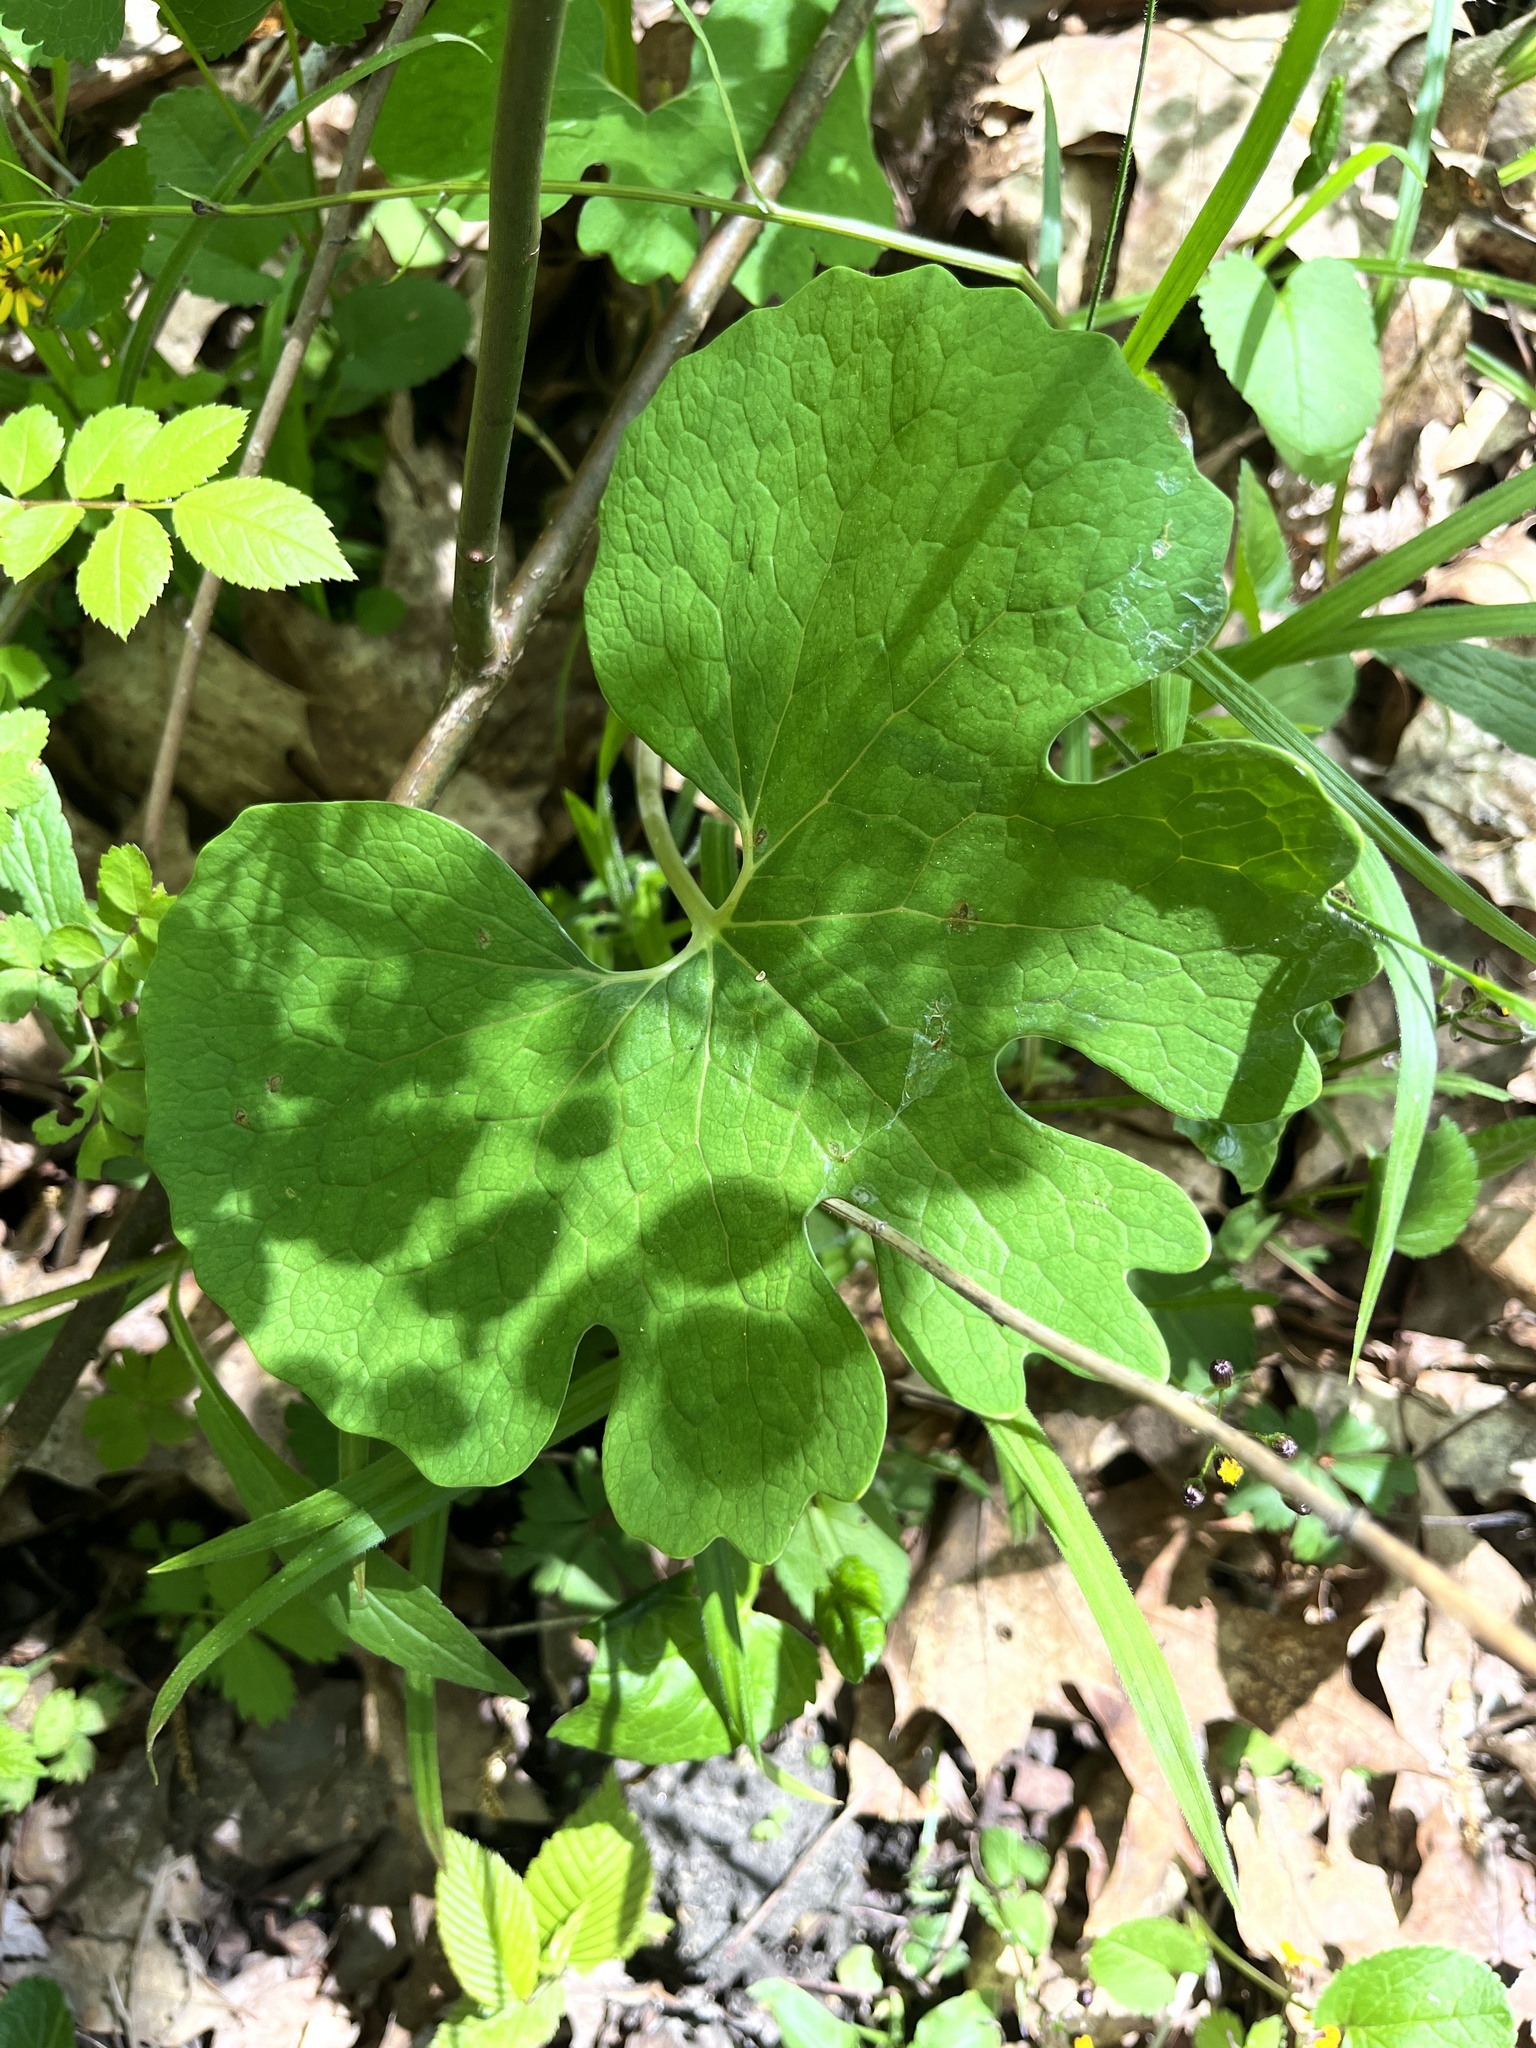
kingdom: Plantae
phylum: Tracheophyta
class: Magnoliopsida
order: Ranunculales
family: Papaveraceae
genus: Sanguinaria
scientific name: Sanguinaria canadensis
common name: Bloodroot
